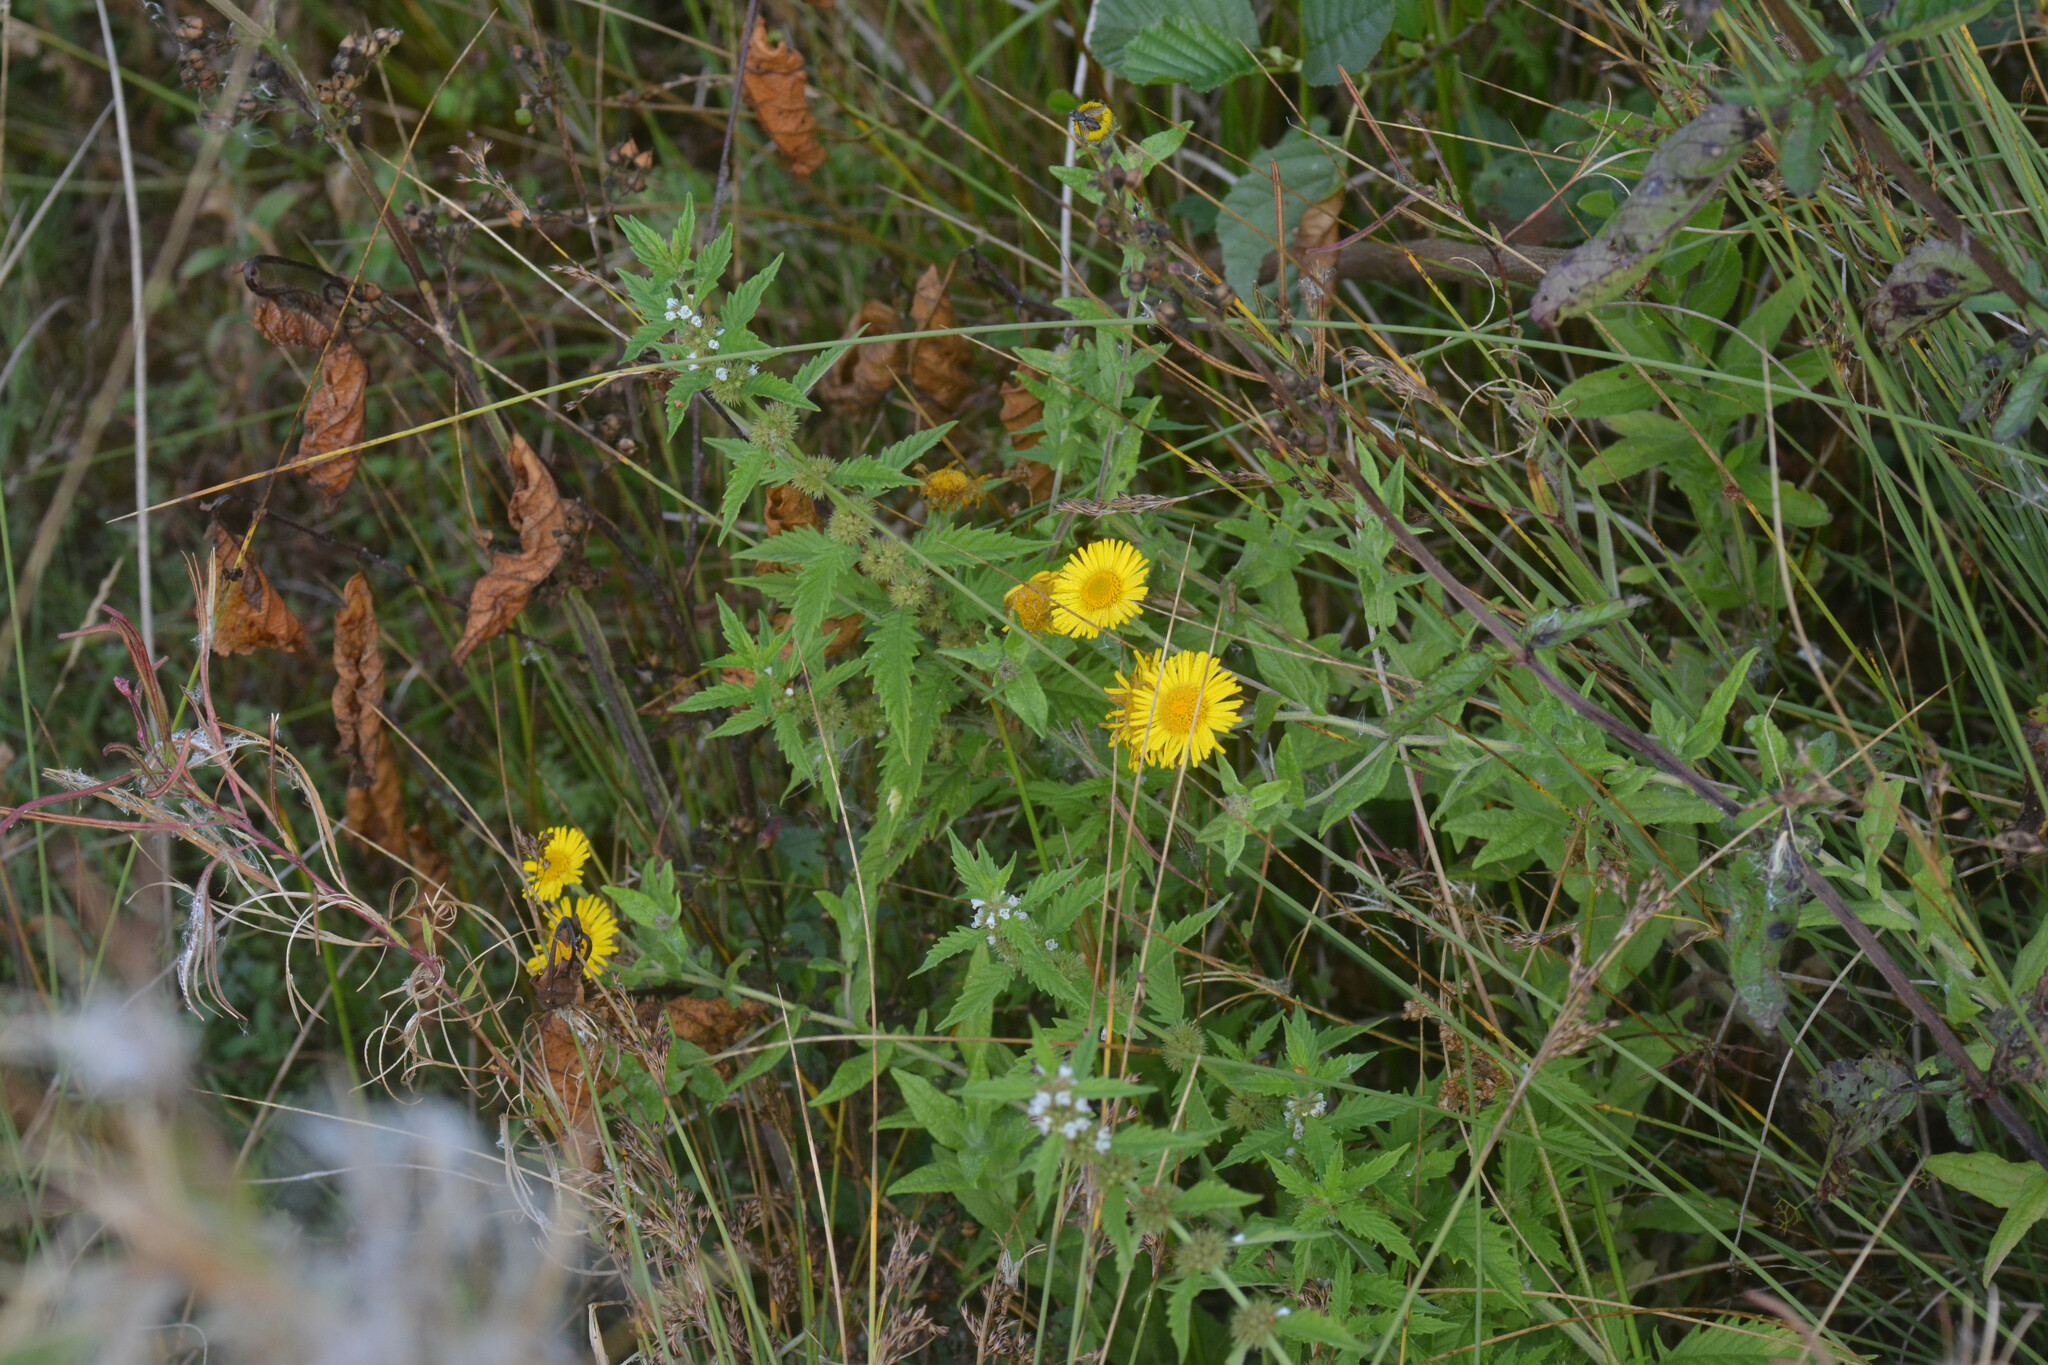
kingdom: Plantae
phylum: Tracheophyta
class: Magnoliopsida
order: Asterales
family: Asteraceae
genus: Pulicaria
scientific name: Pulicaria dysenterica
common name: Common fleabane
